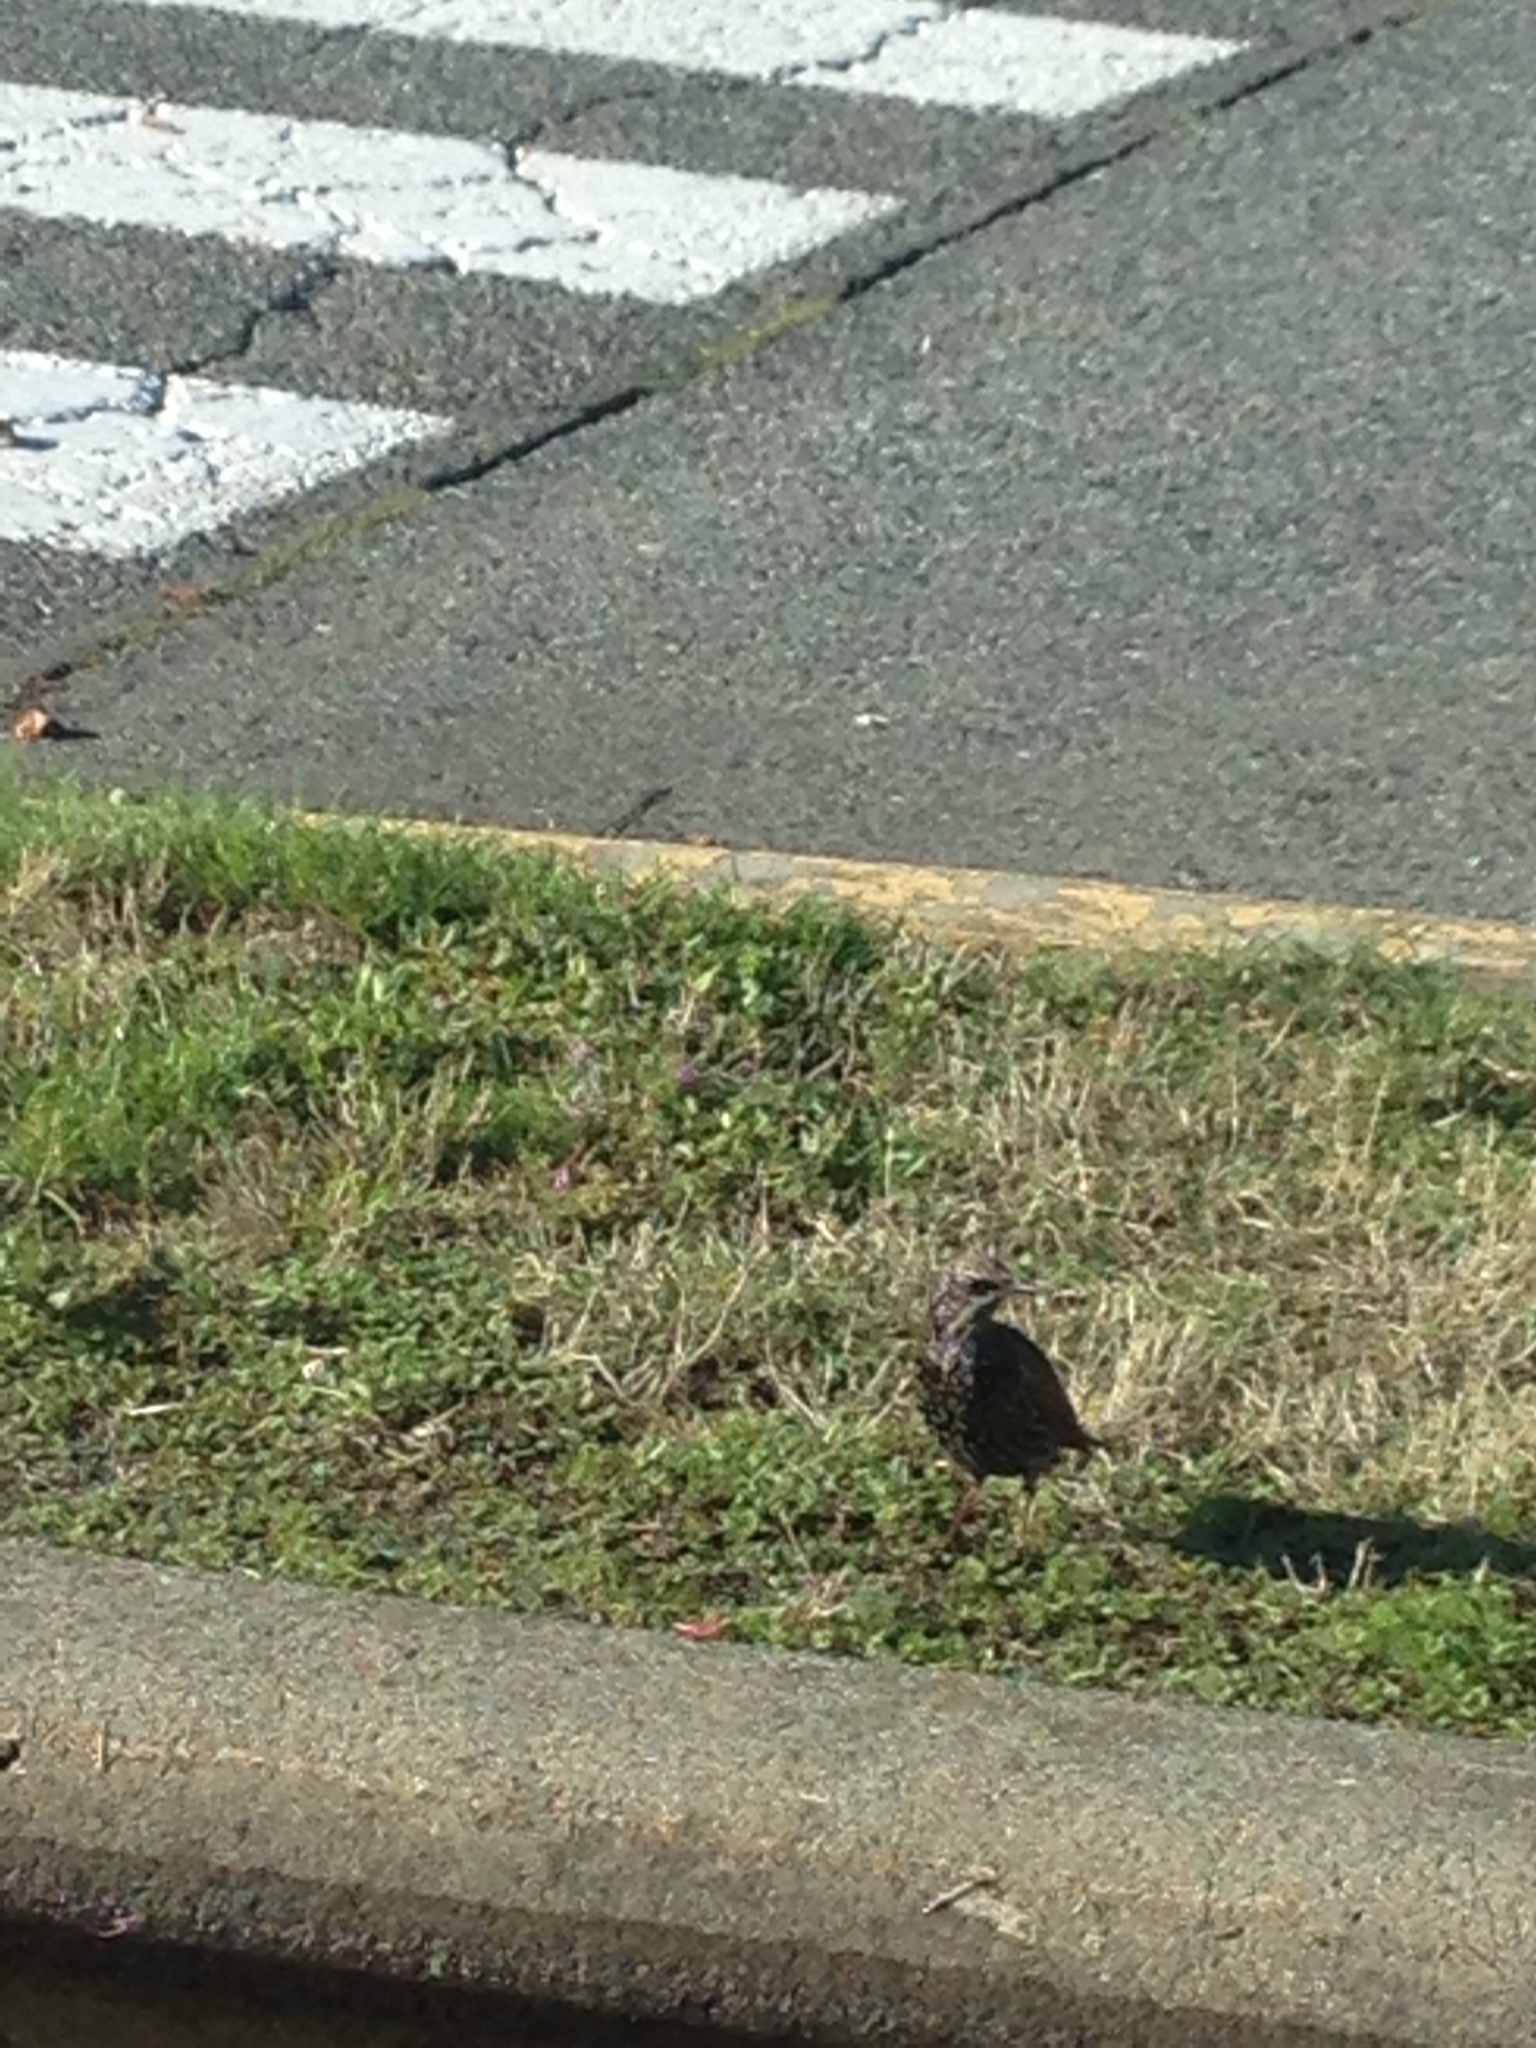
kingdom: Animalia
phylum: Chordata
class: Aves
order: Passeriformes
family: Sturnidae
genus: Sturnus
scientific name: Sturnus vulgaris
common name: Common starling
